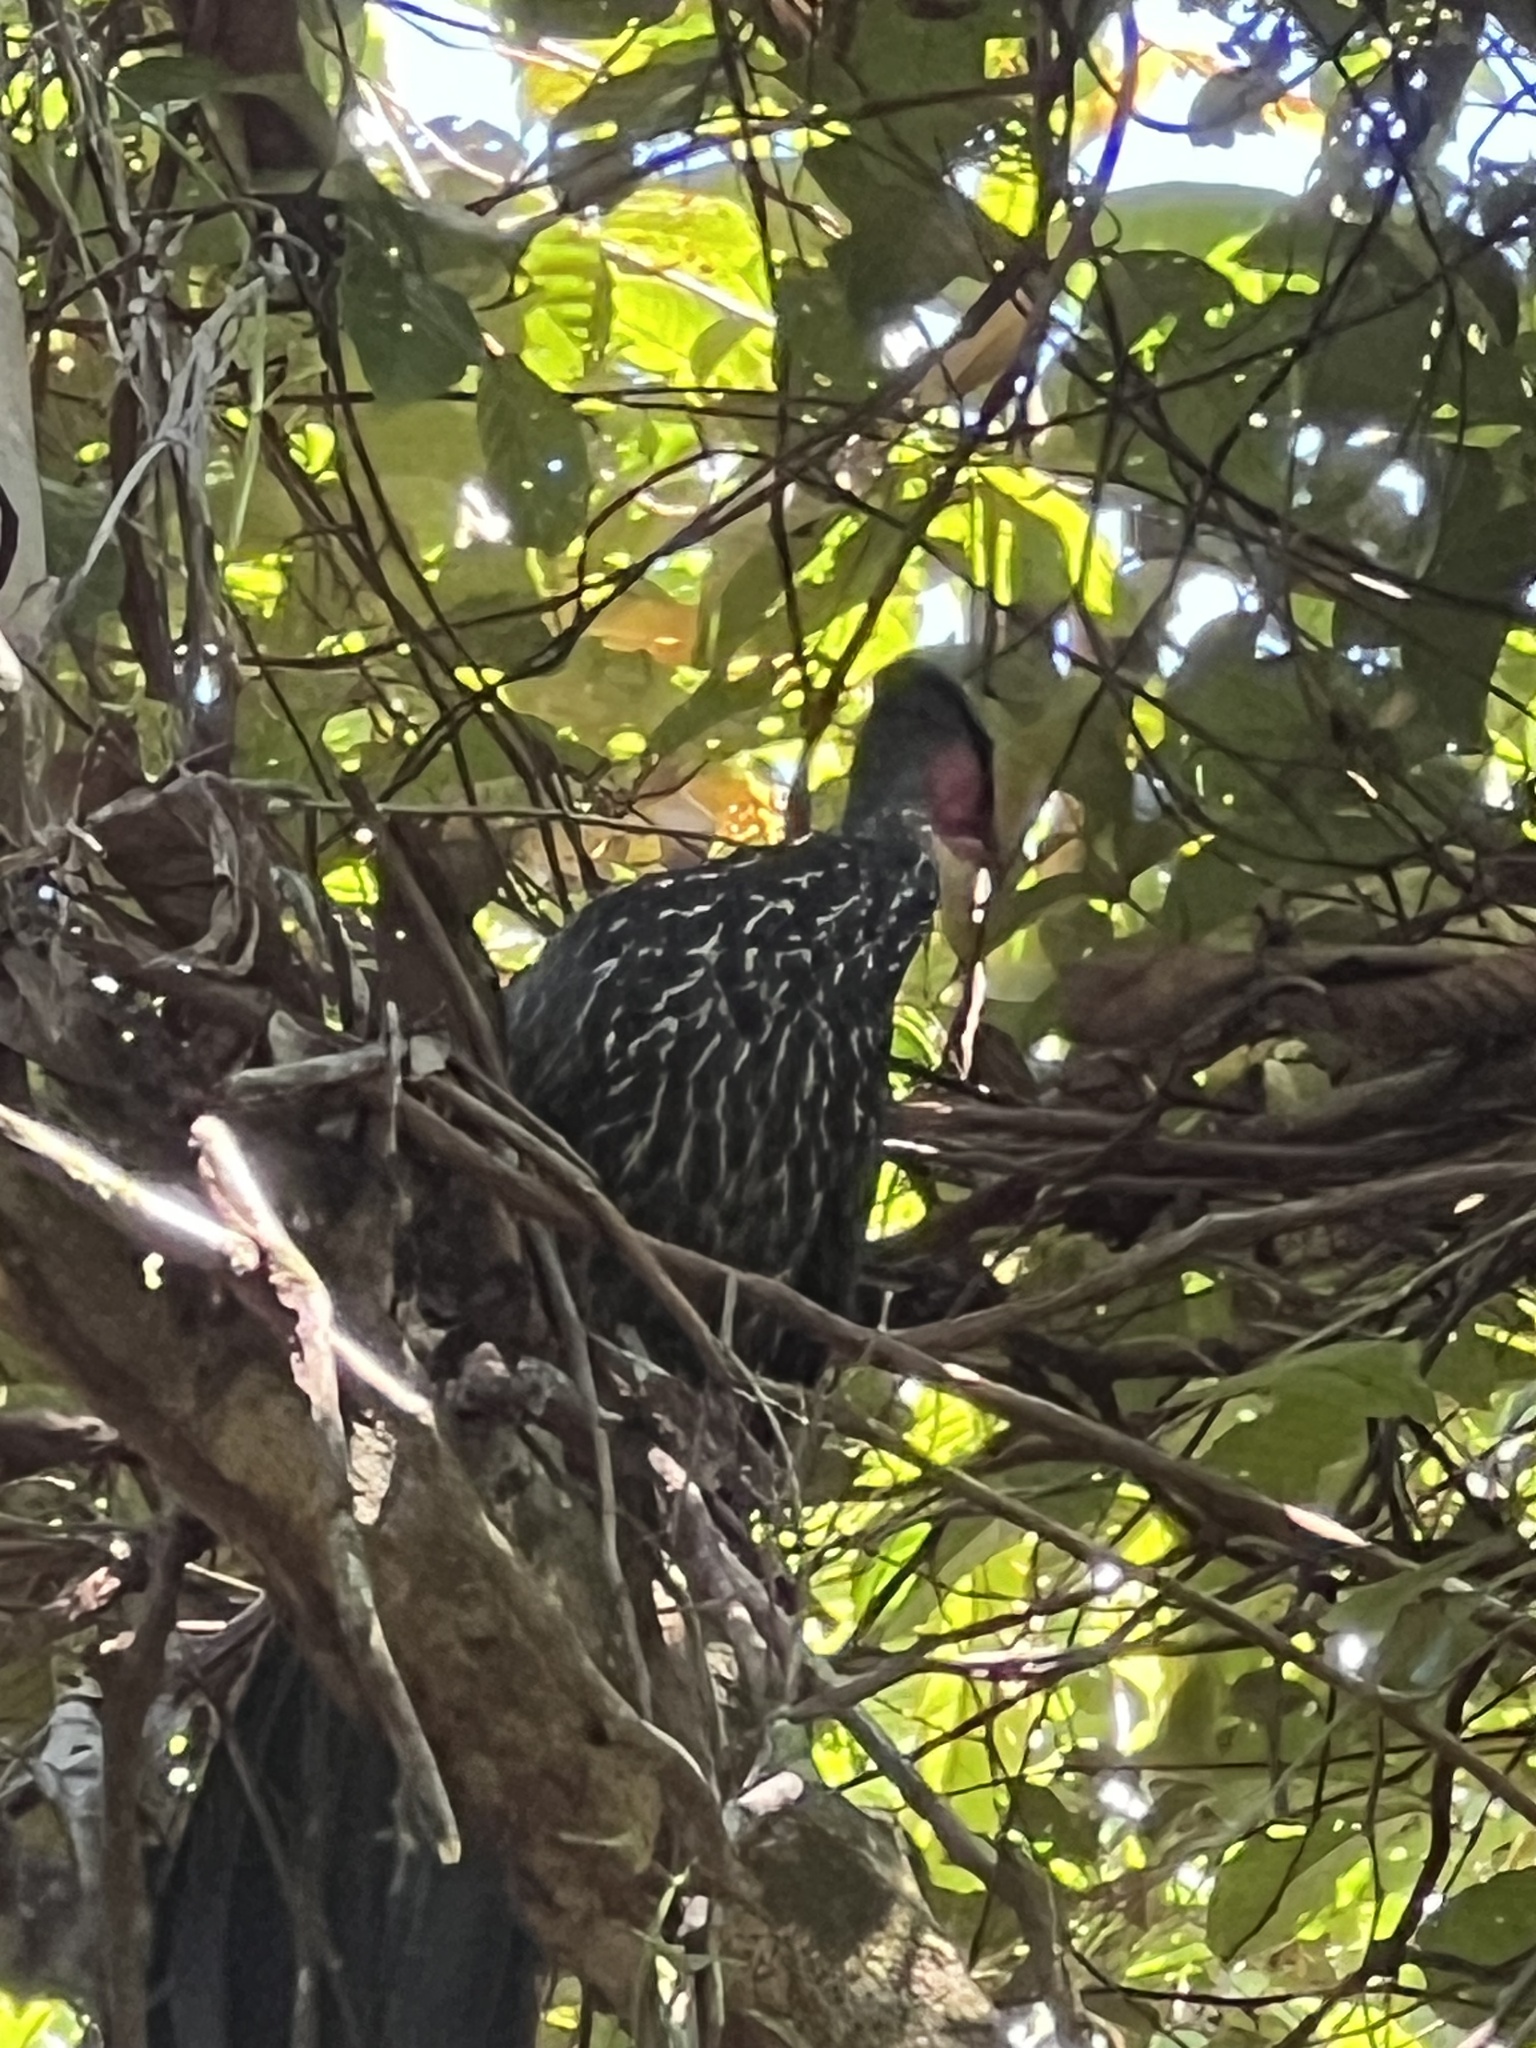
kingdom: Animalia
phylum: Chordata
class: Aves
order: Galliformes
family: Cracidae
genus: Penelope
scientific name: Penelope purpurascens
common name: Crested guan
